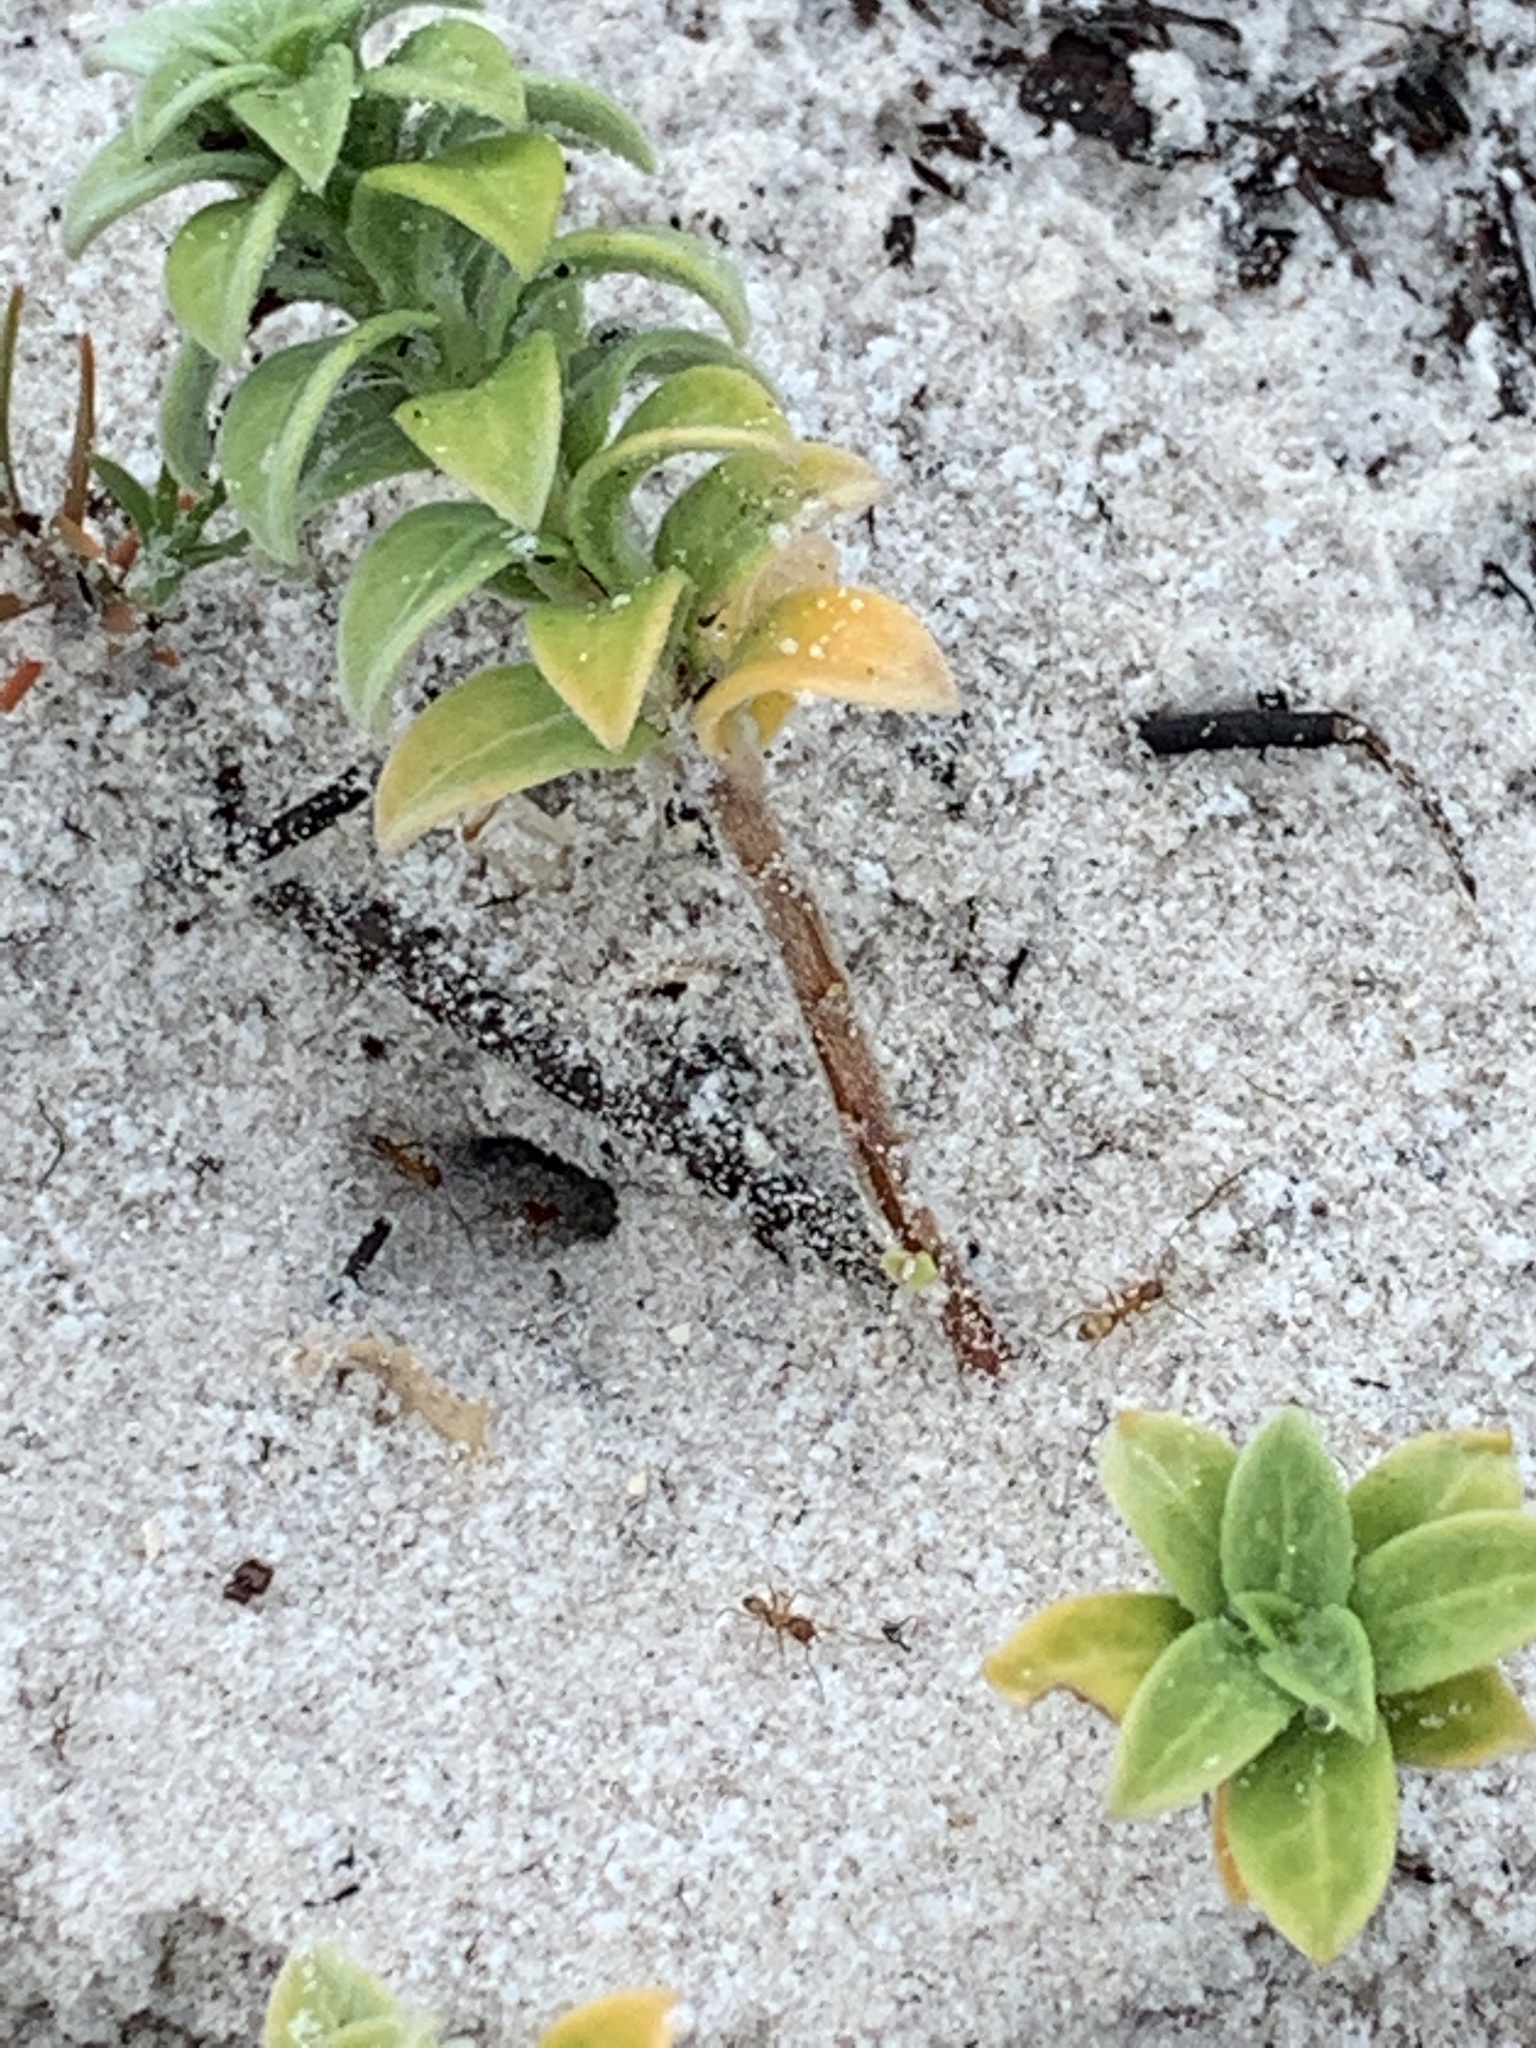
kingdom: Animalia
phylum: Arthropoda
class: Insecta
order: Hymenoptera
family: Formicidae
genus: Dorymyrmex
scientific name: Dorymyrmex bureni
